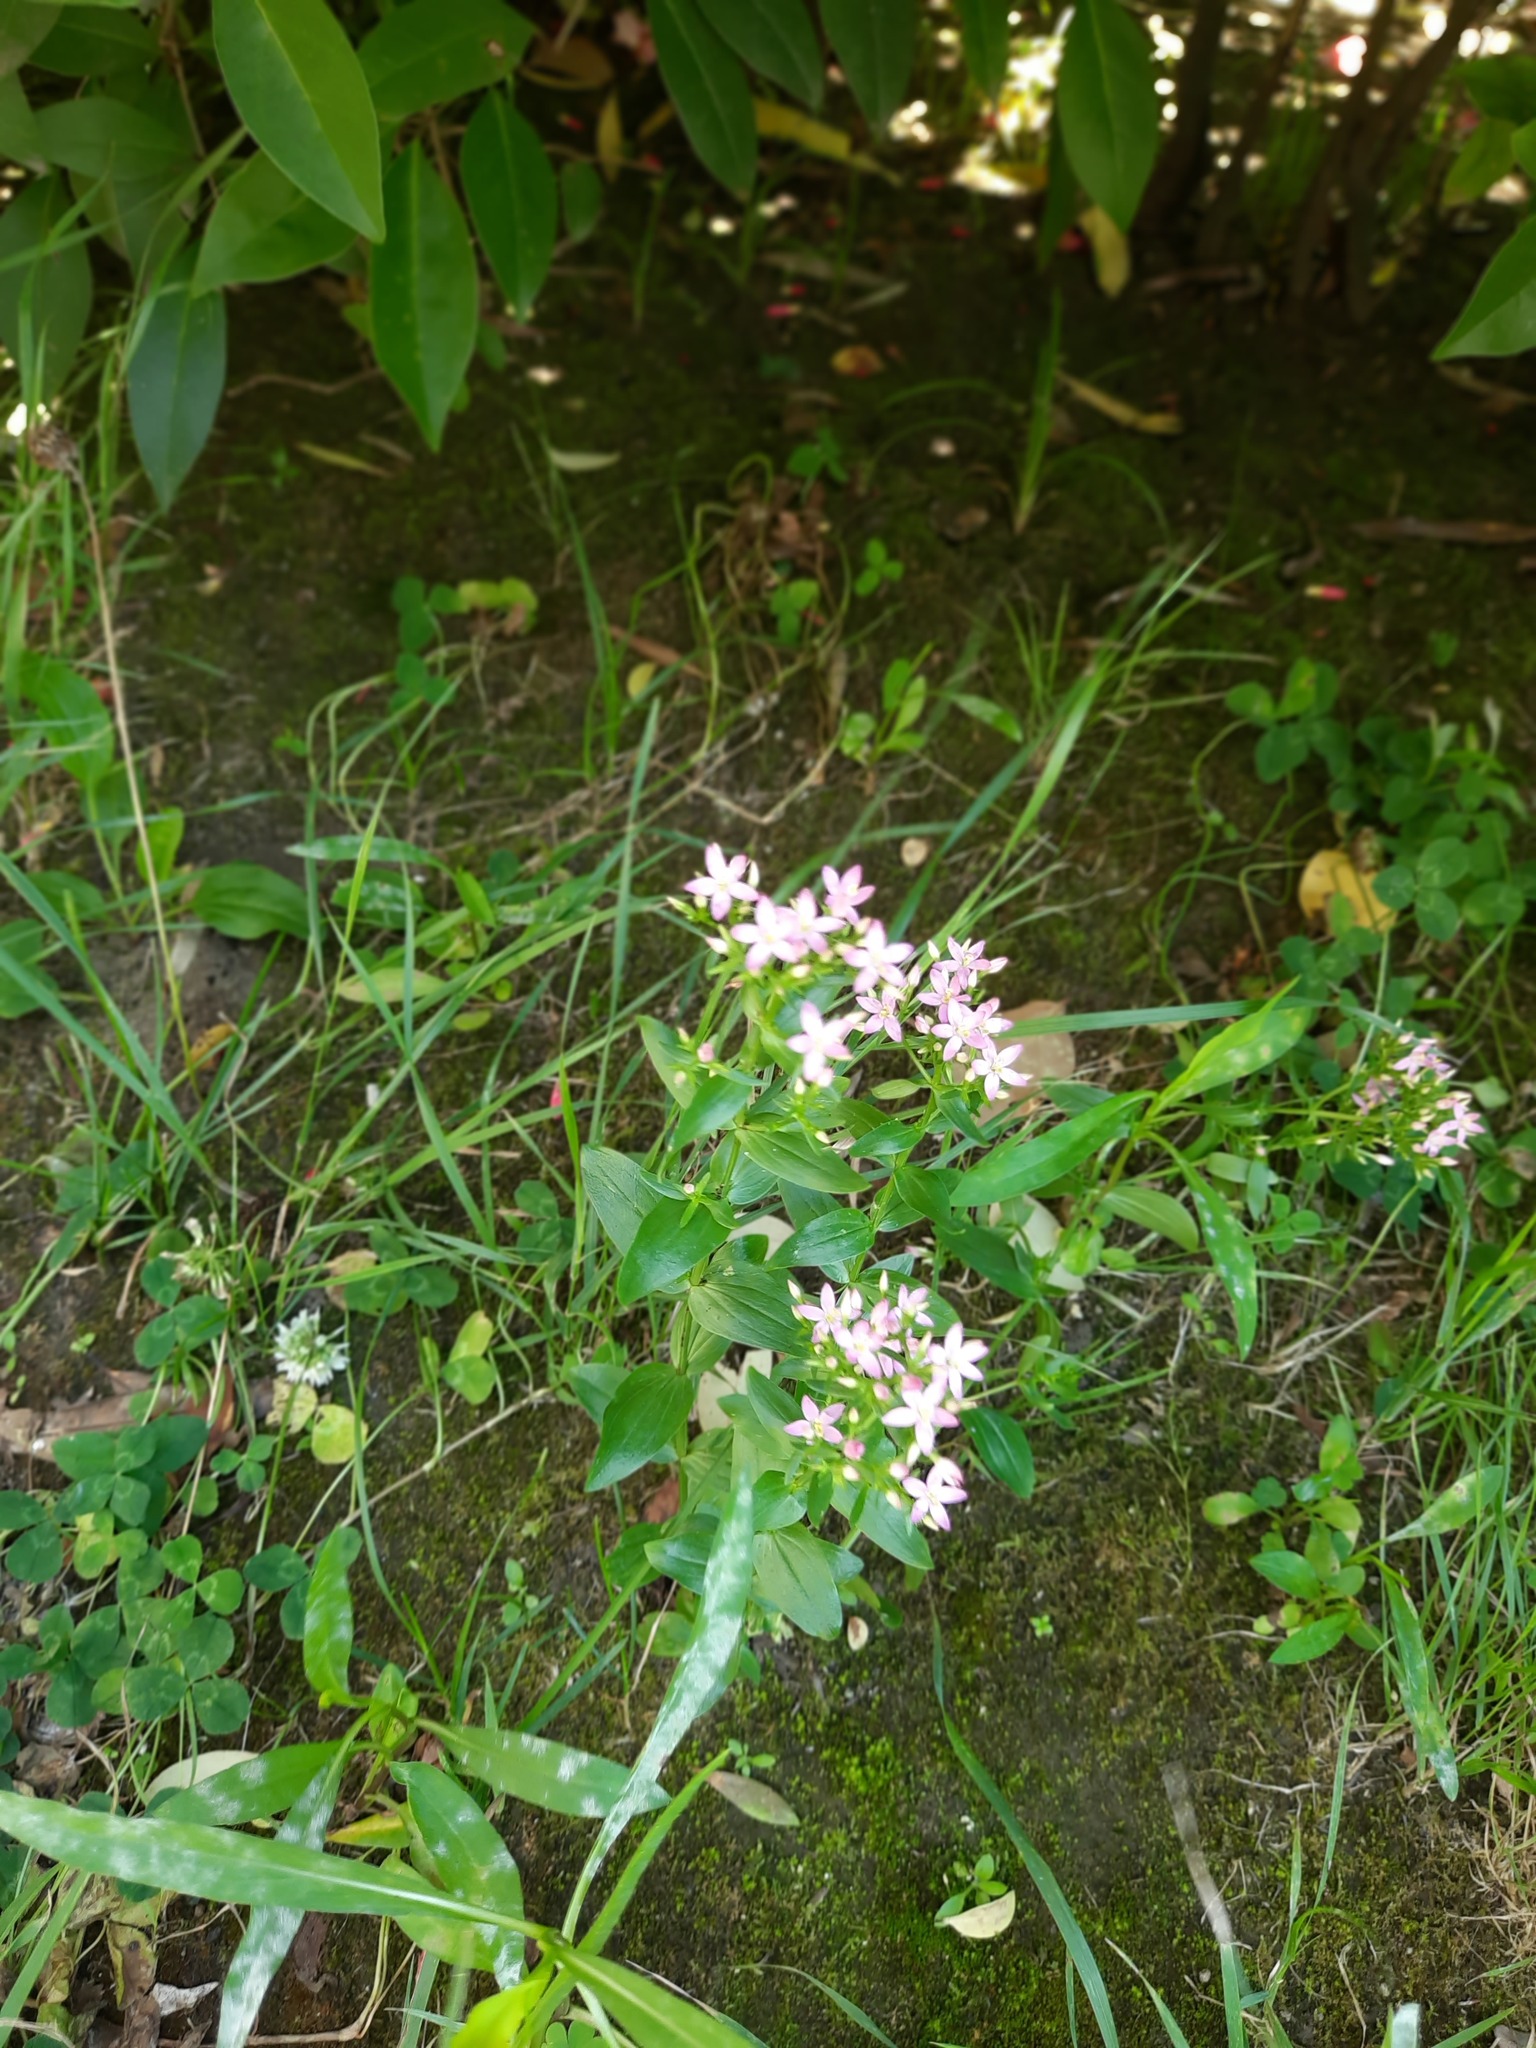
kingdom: Plantae
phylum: Tracheophyta
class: Magnoliopsida
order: Gentianales
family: Gentianaceae
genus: Centaurium
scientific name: Centaurium erythraea
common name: Common centaury
